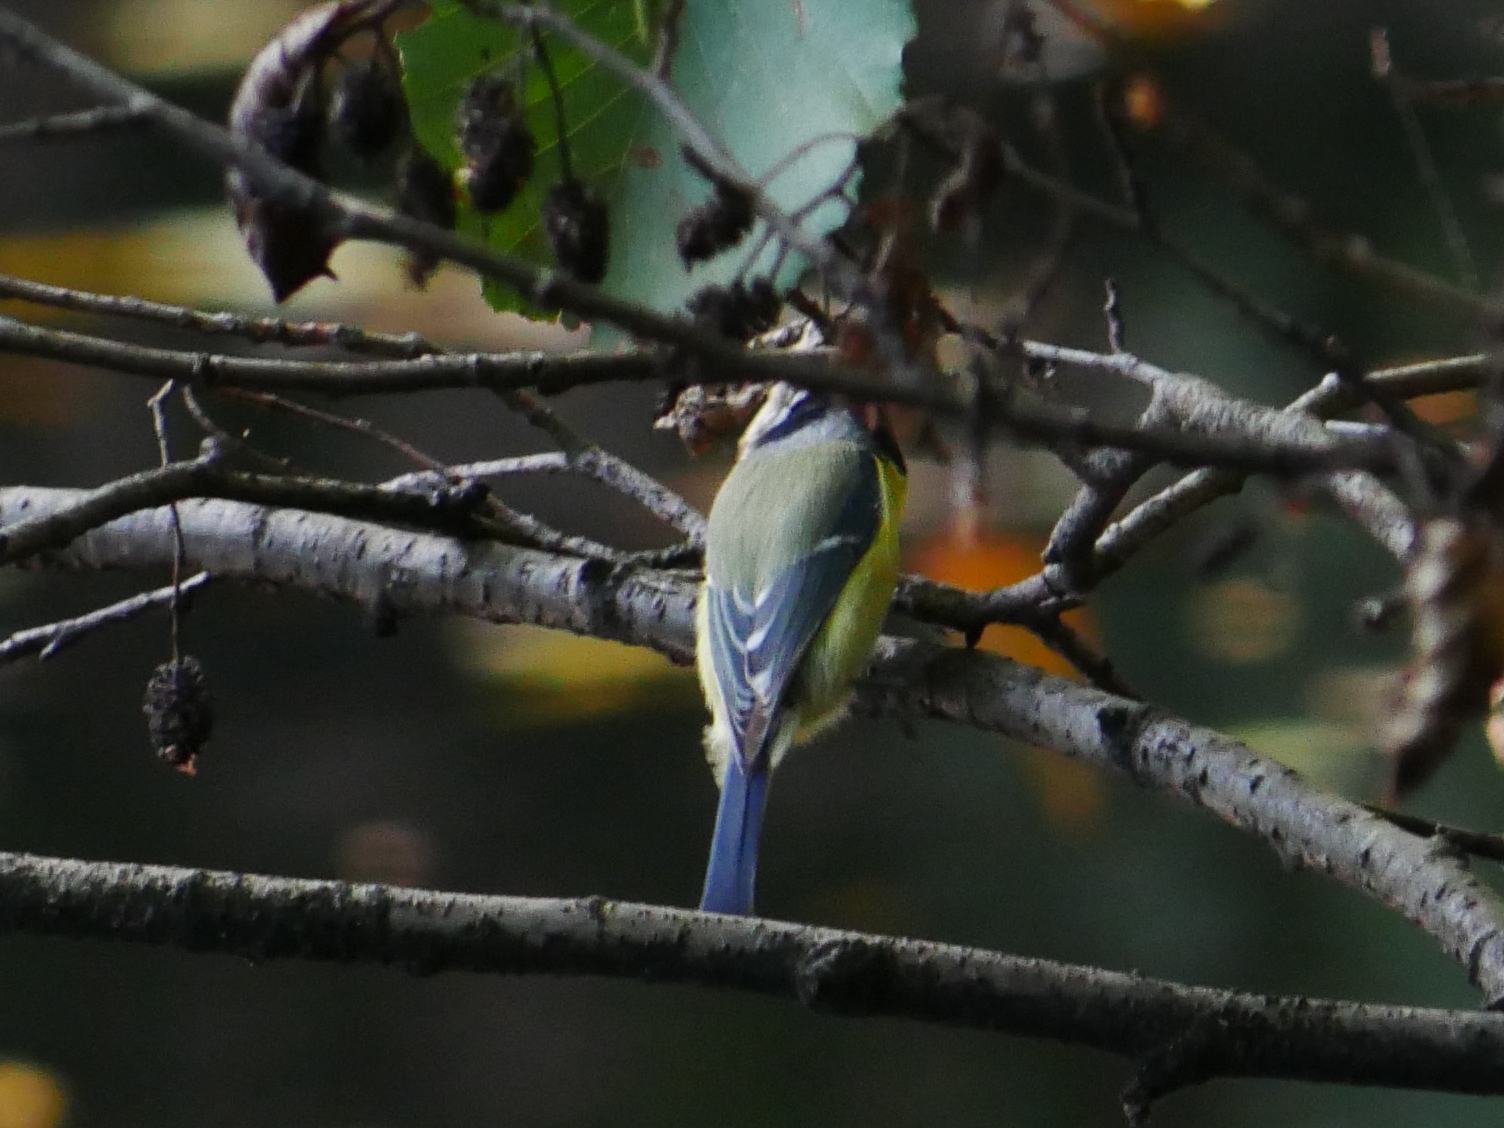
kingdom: Animalia
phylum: Chordata
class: Aves
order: Passeriformes
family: Paridae
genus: Cyanistes
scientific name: Cyanistes caeruleus
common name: Eurasian blue tit
